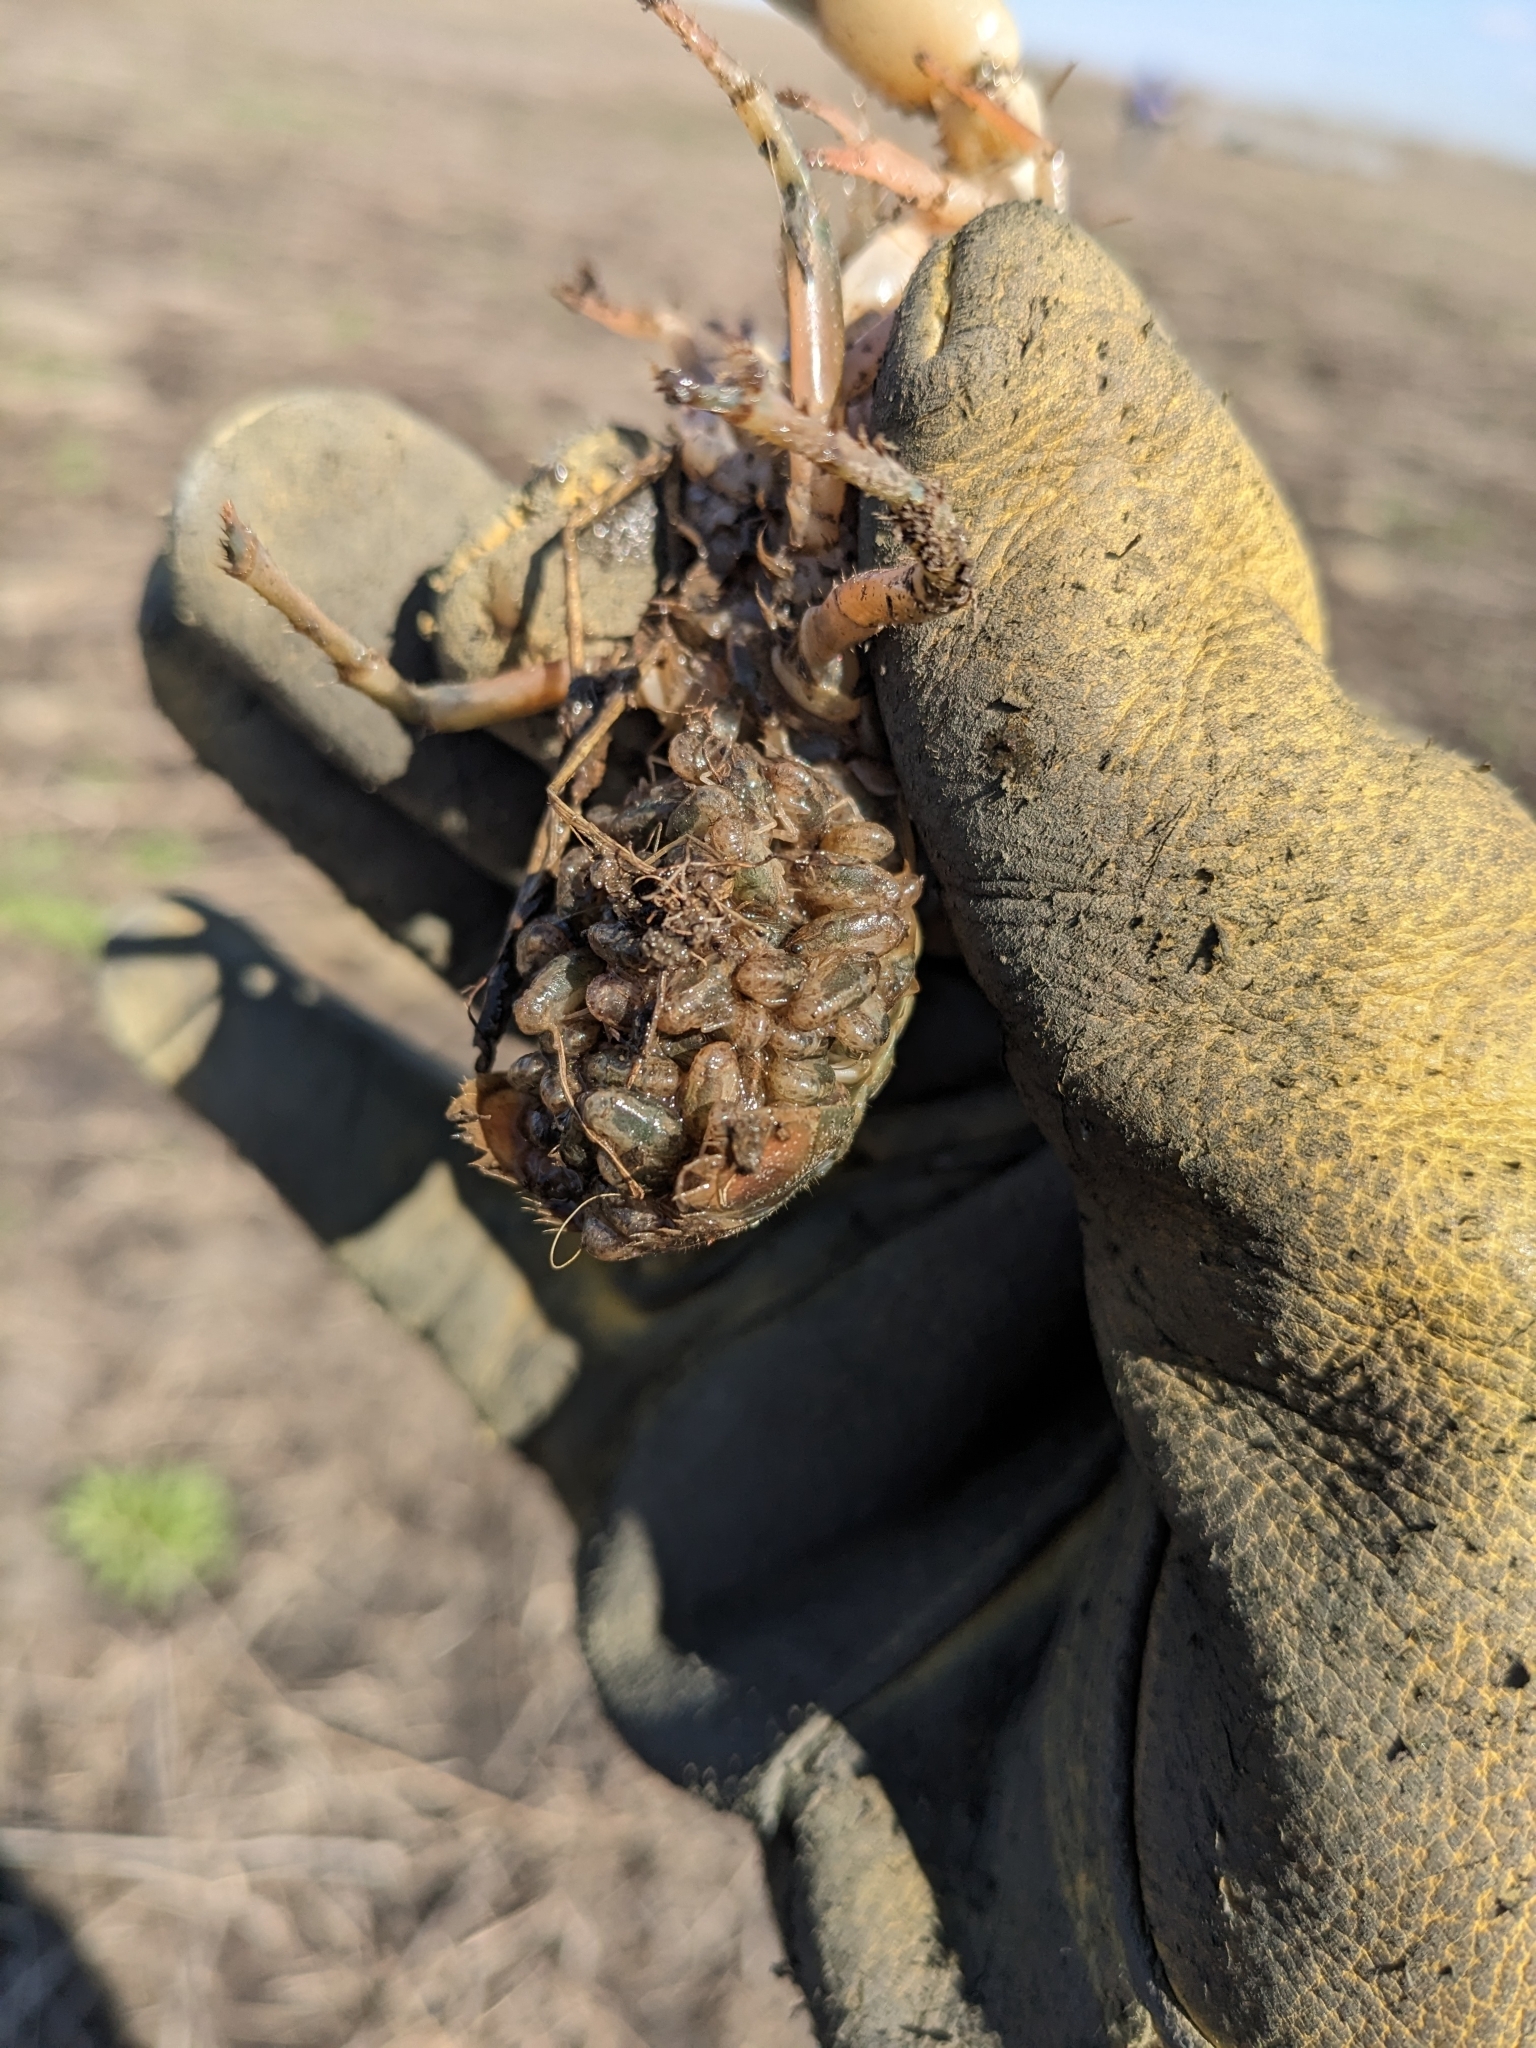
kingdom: Animalia
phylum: Arthropoda
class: Malacostraca
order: Decapoda
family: Cambaridae
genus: Procambarus
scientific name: Procambarus gracilis
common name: Prairie crayfish
